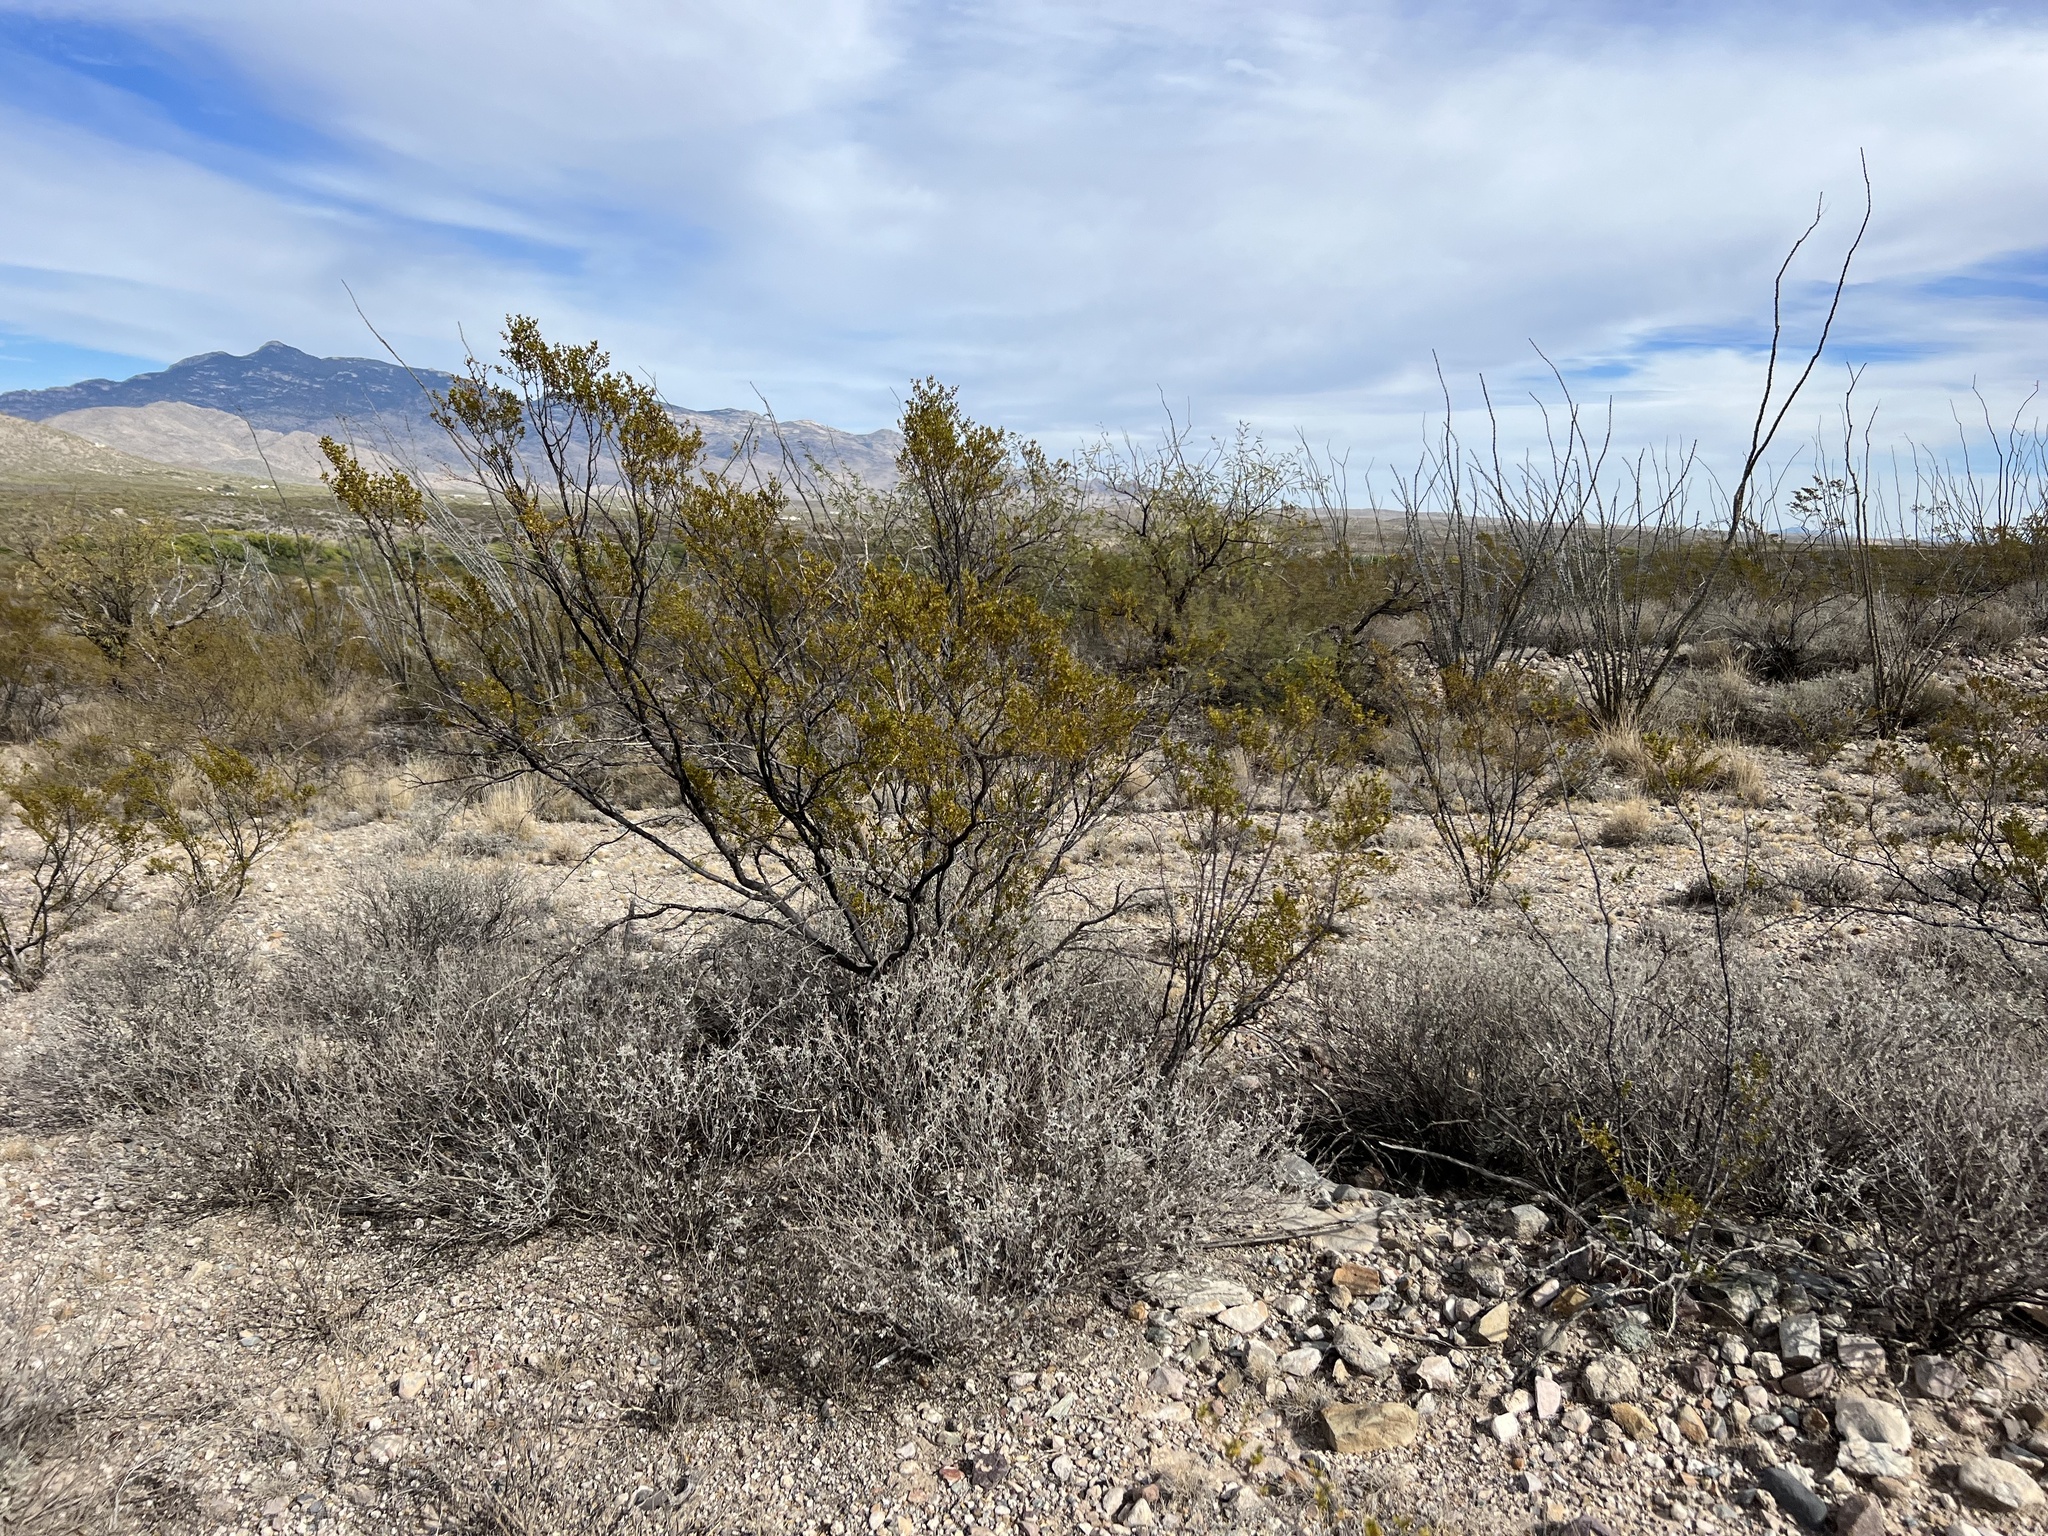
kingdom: Plantae
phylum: Tracheophyta
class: Magnoliopsida
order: Zygophyllales
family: Zygophyllaceae
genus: Larrea
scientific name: Larrea tridentata
